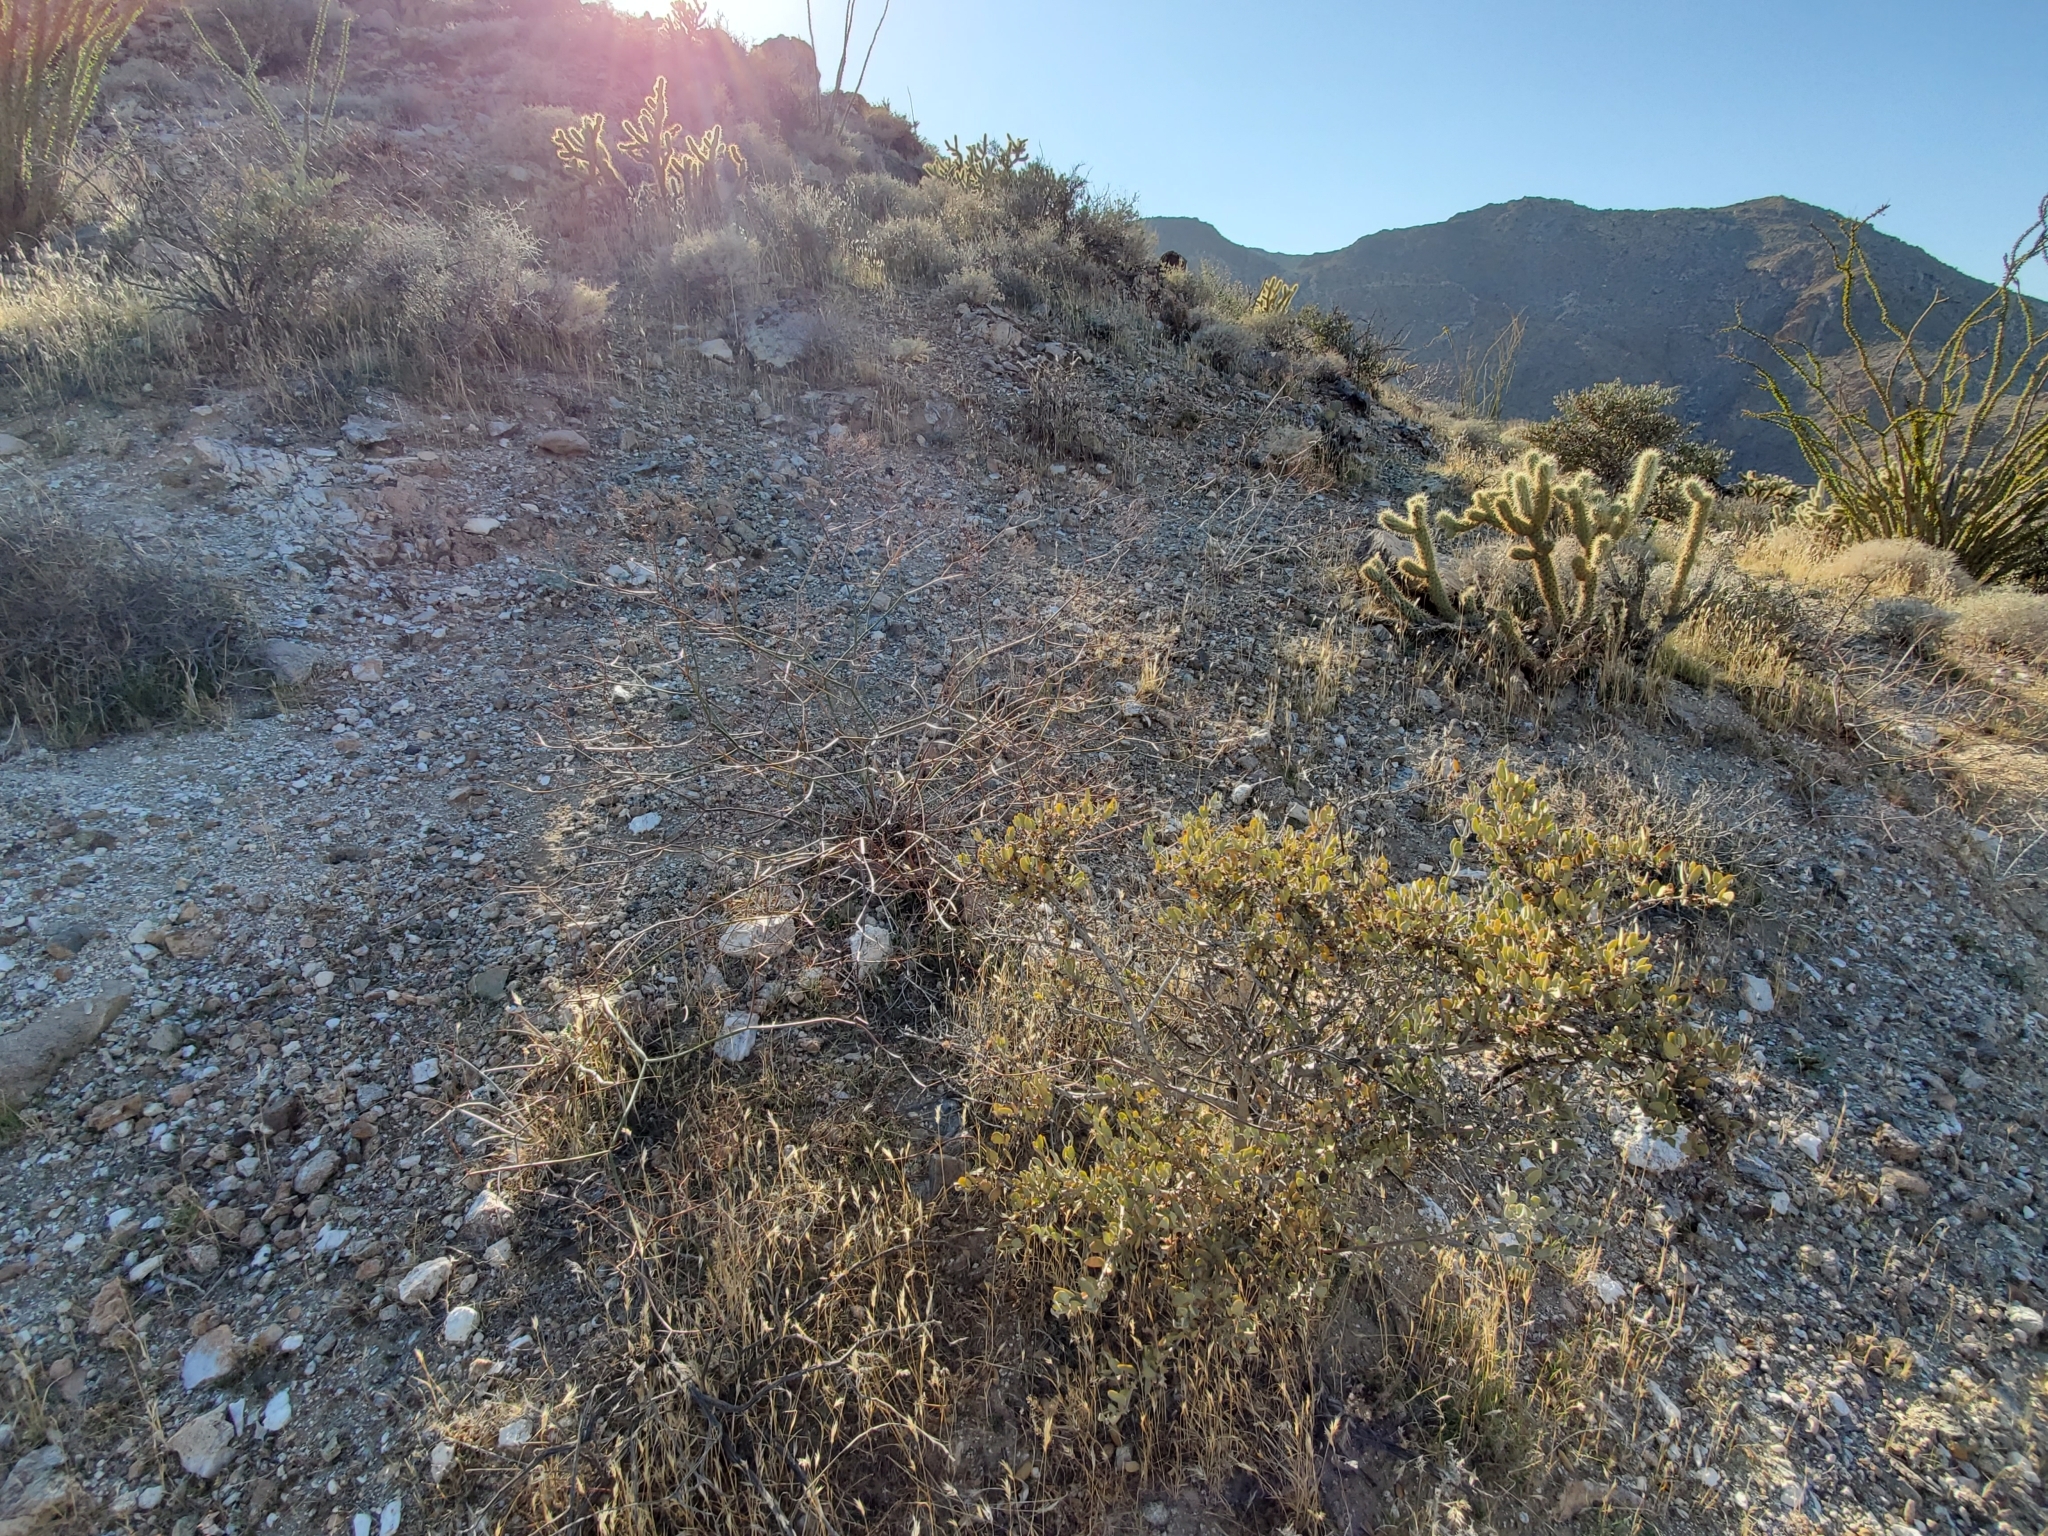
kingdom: Plantae
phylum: Tracheophyta
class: Magnoliopsida
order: Caryophyllales
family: Polygonaceae
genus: Eriogonum
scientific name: Eriogonum inflatum
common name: Desert trumpet
